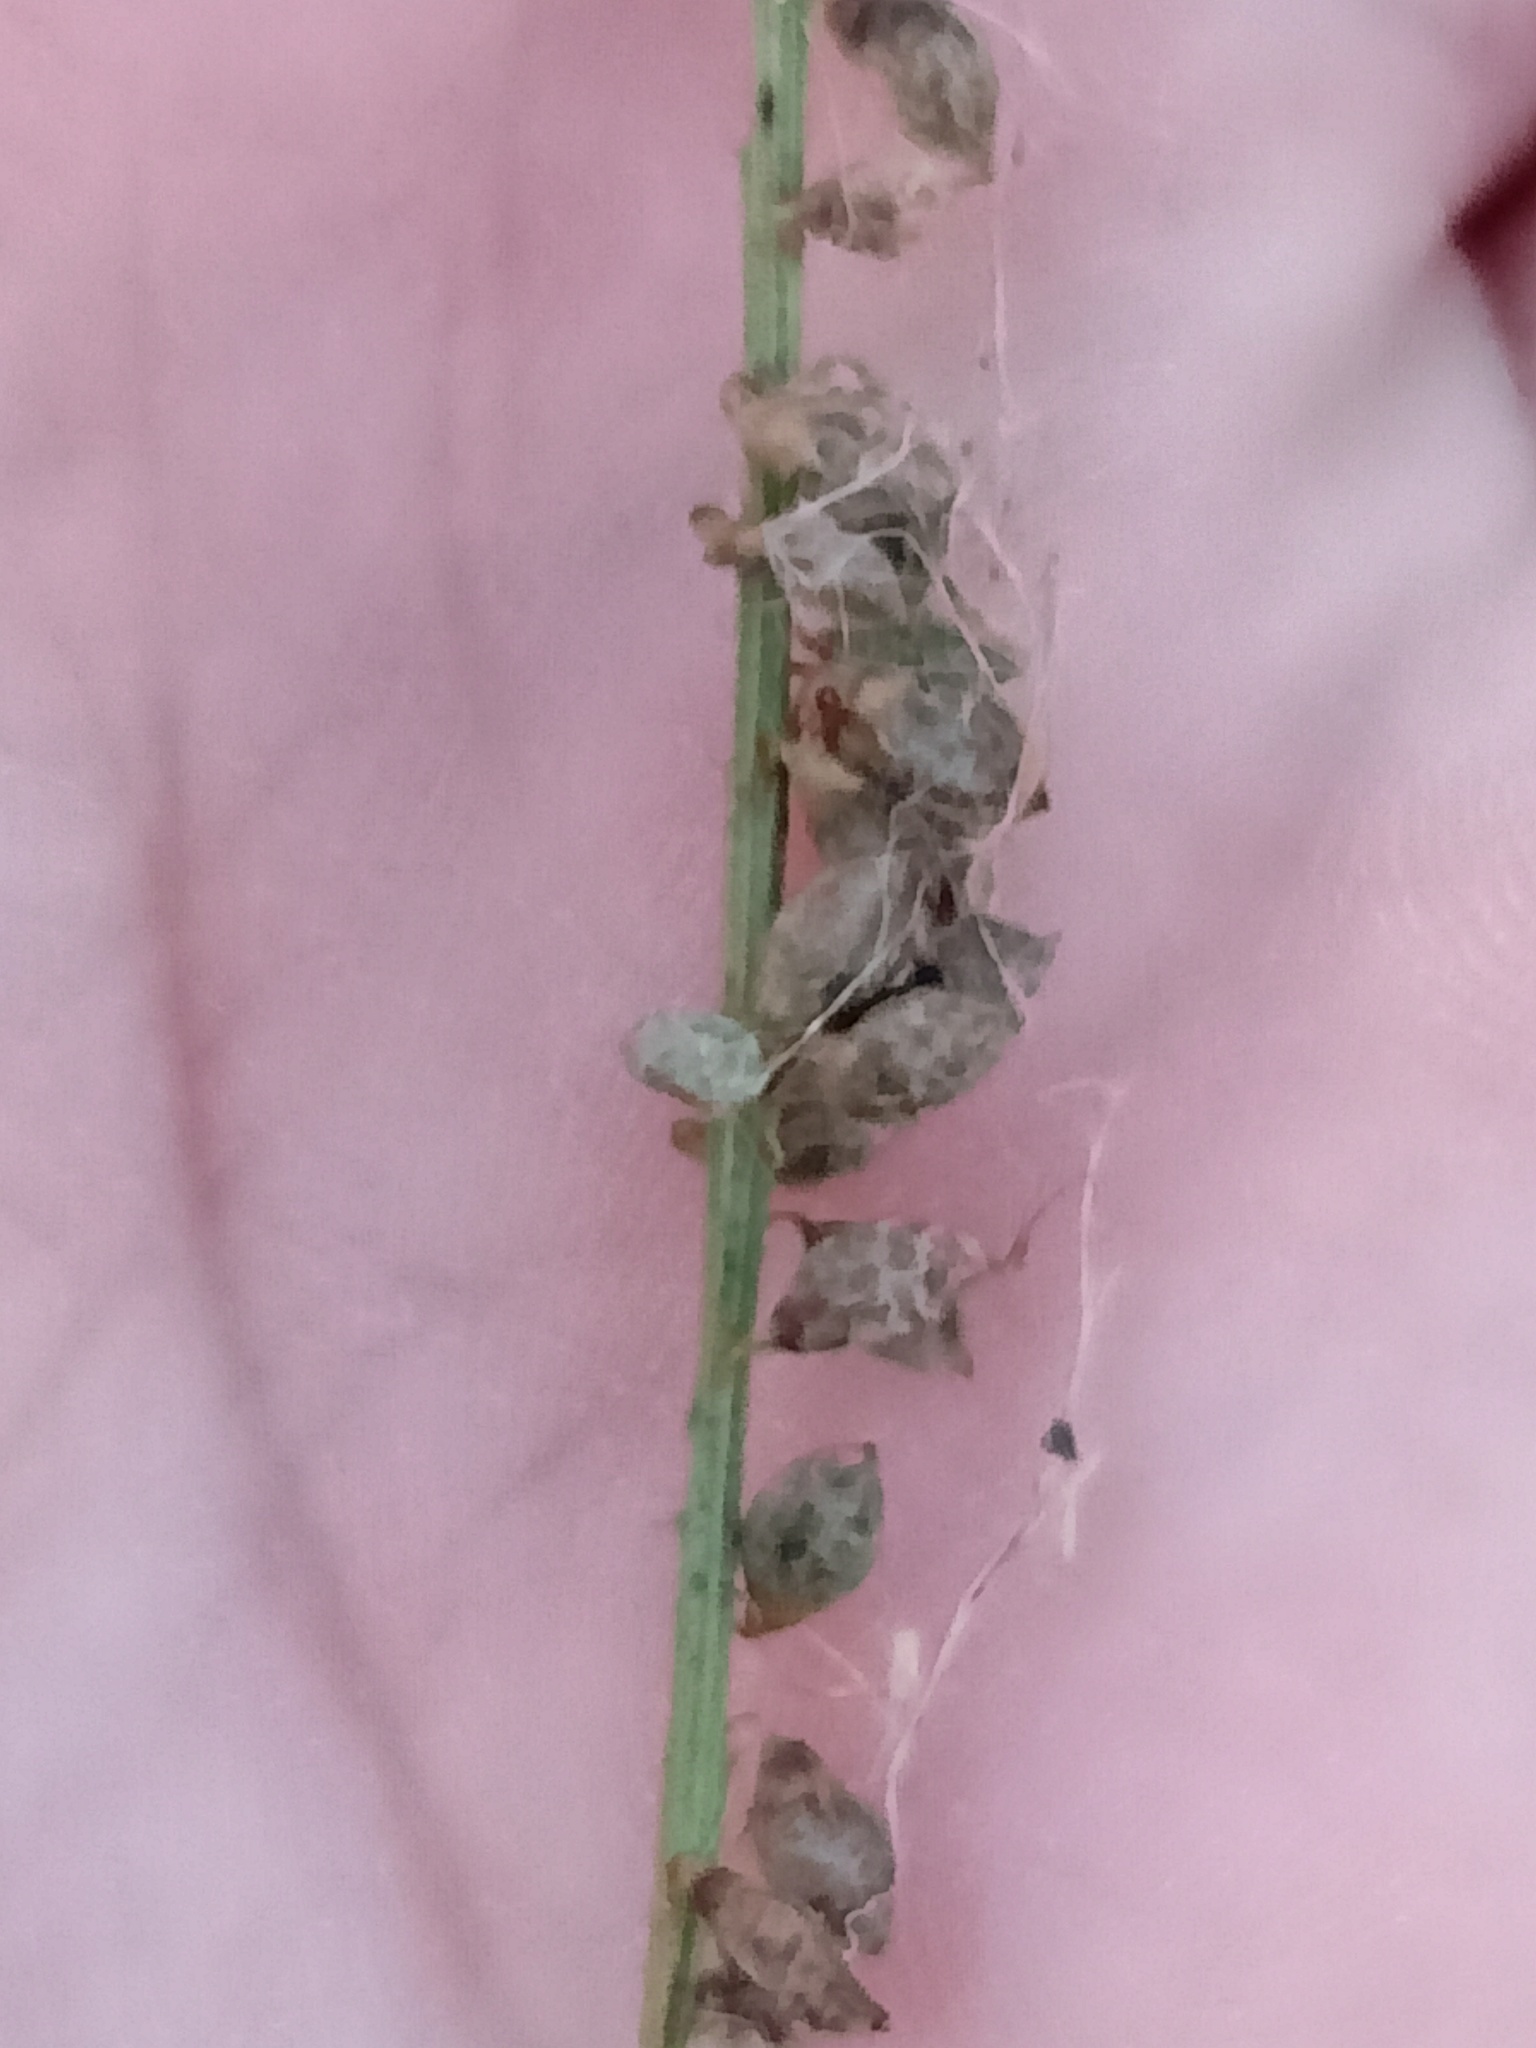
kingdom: Plantae
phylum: Tracheophyta
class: Magnoliopsida
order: Fabales
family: Fabaceae
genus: Melilotus
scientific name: Melilotus
